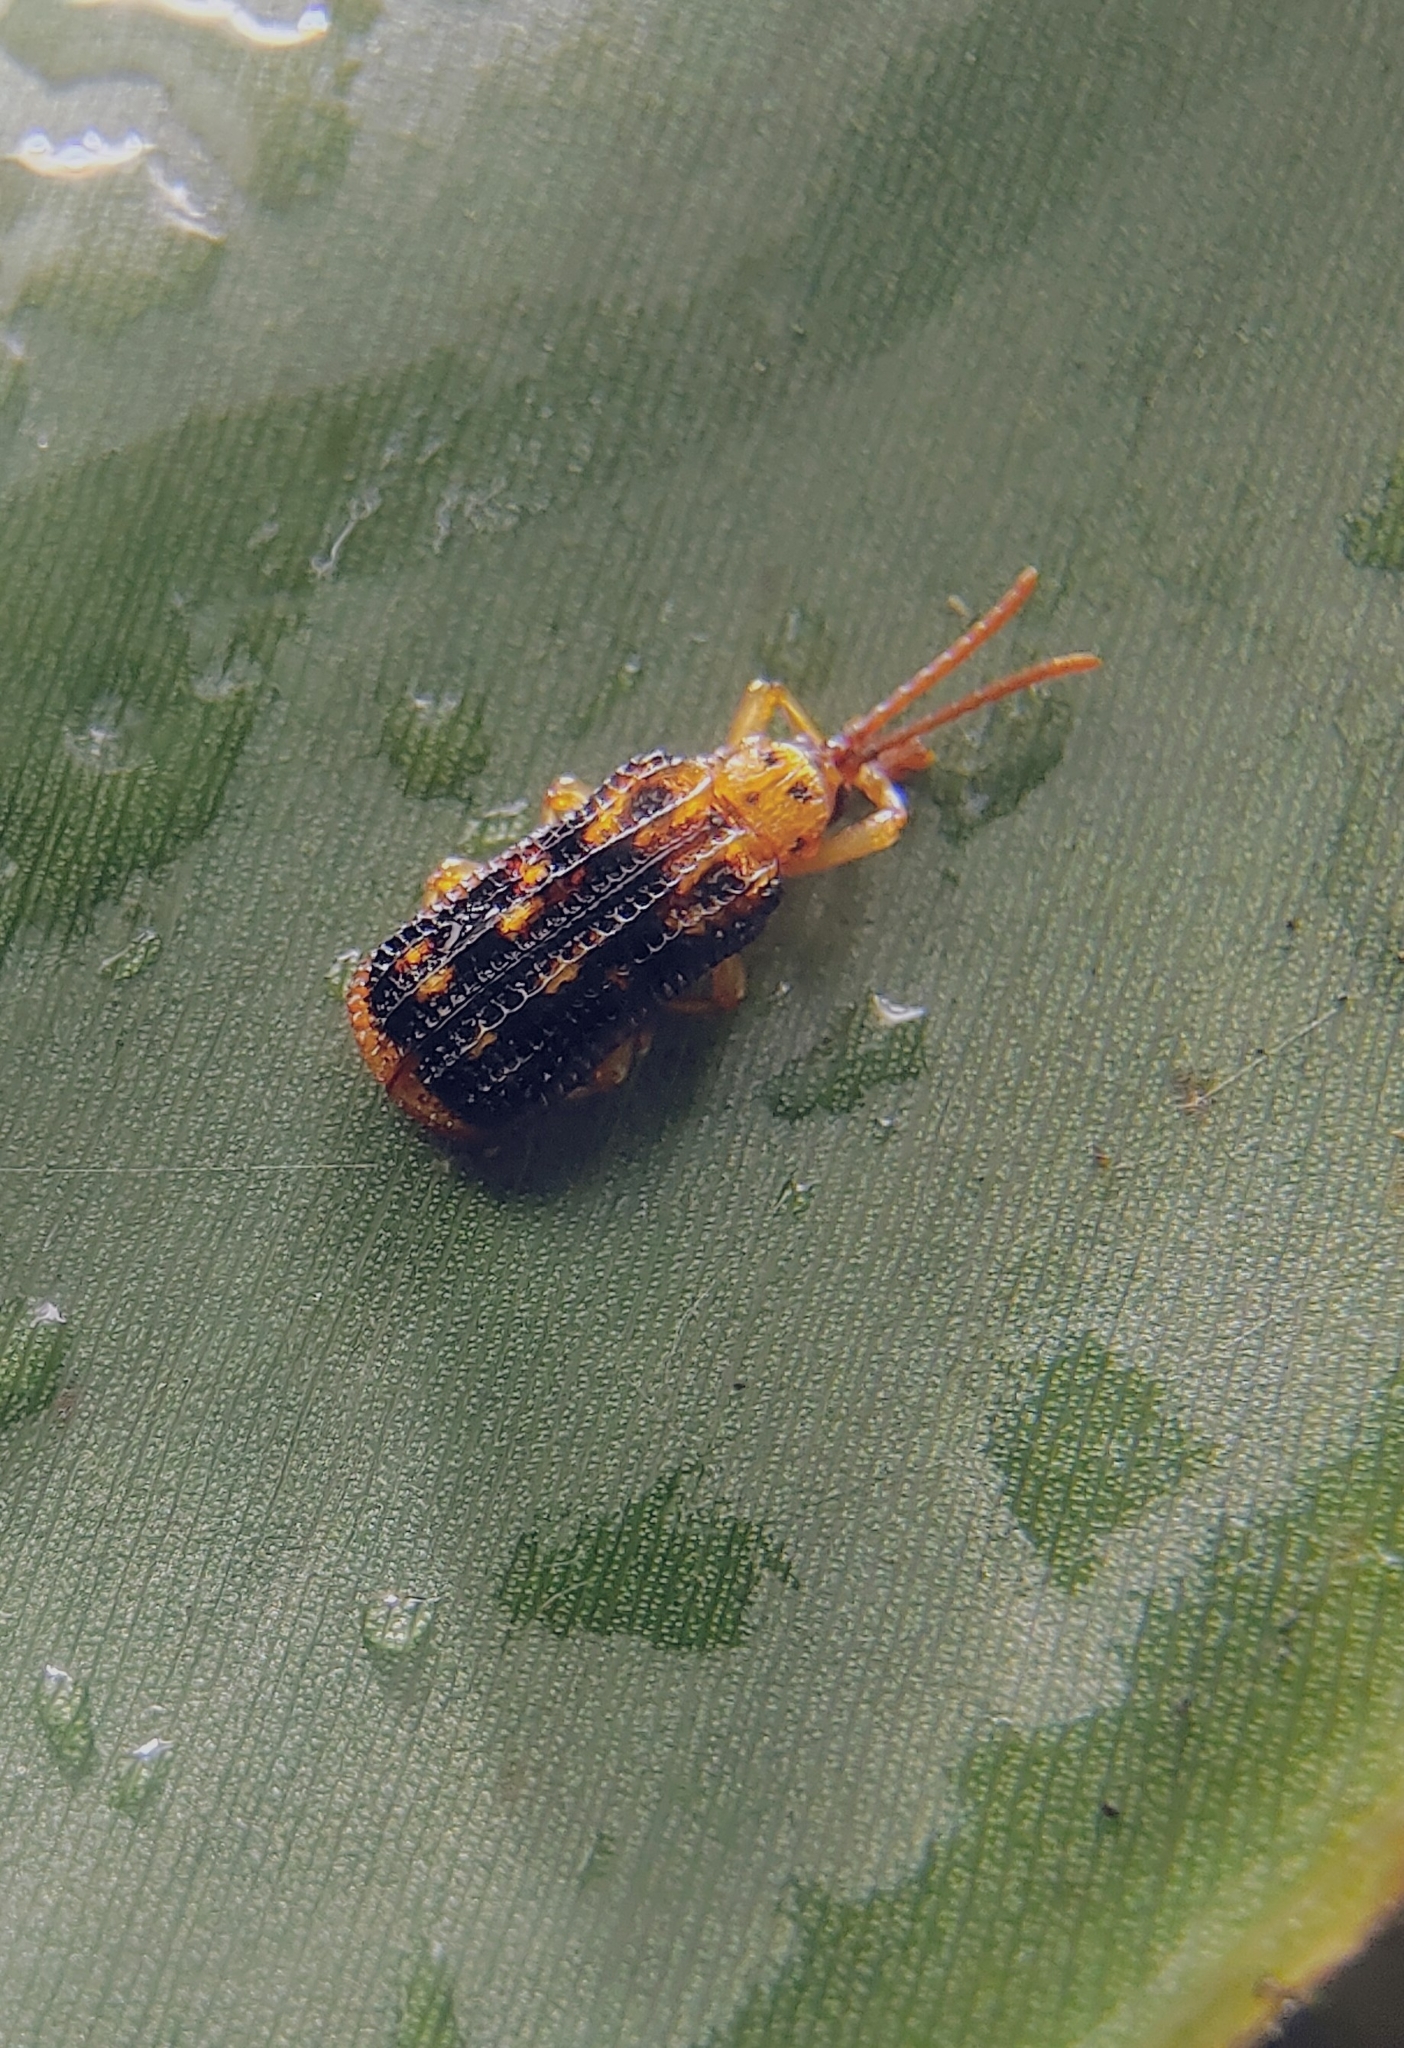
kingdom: Animalia
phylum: Arthropoda
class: Insecta
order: Coleoptera
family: Chrysomelidae
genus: Gonophora
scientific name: Gonophora pulchella
